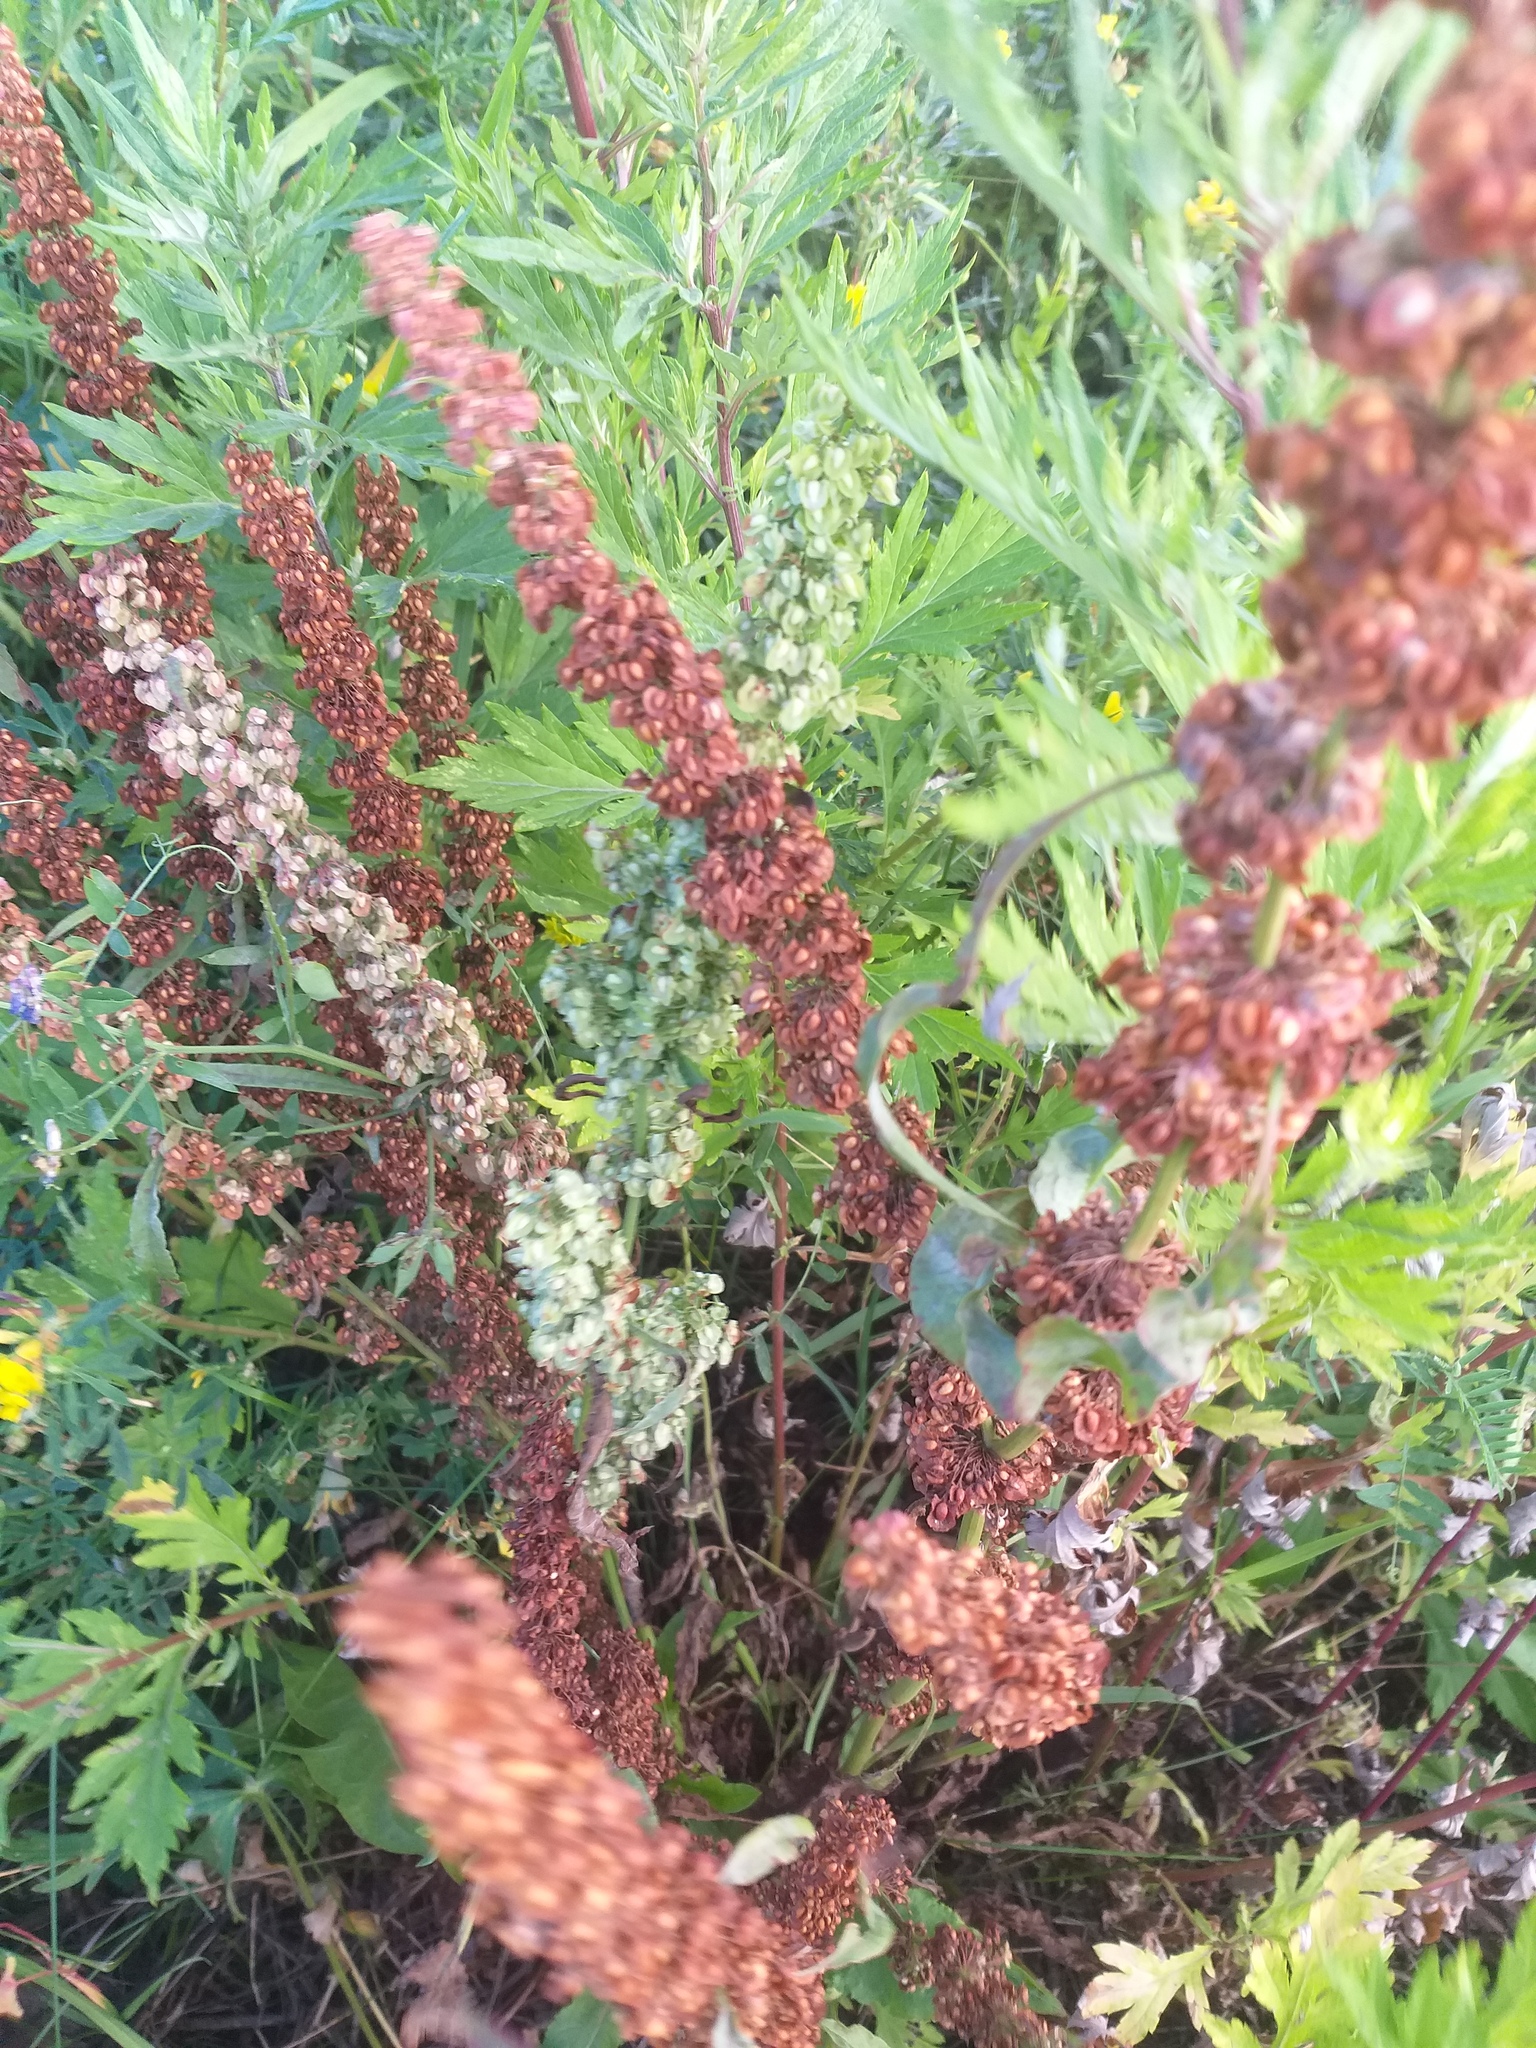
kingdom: Plantae
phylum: Tracheophyta
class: Magnoliopsida
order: Caryophyllales
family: Polygonaceae
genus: Rumex
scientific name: Rumex crispus
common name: Curled dock
